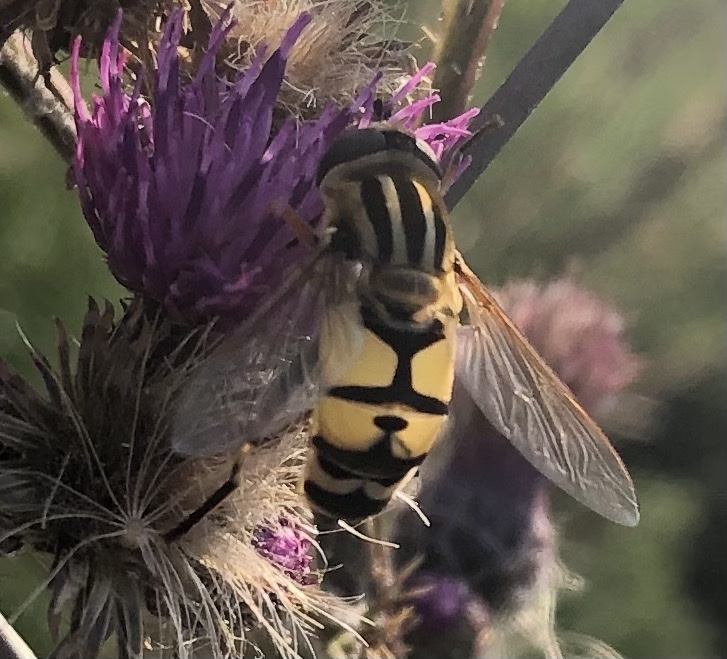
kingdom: Animalia
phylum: Arthropoda
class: Insecta
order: Diptera
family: Syrphidae
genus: Helophilus
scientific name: Helophilus trivittatus
